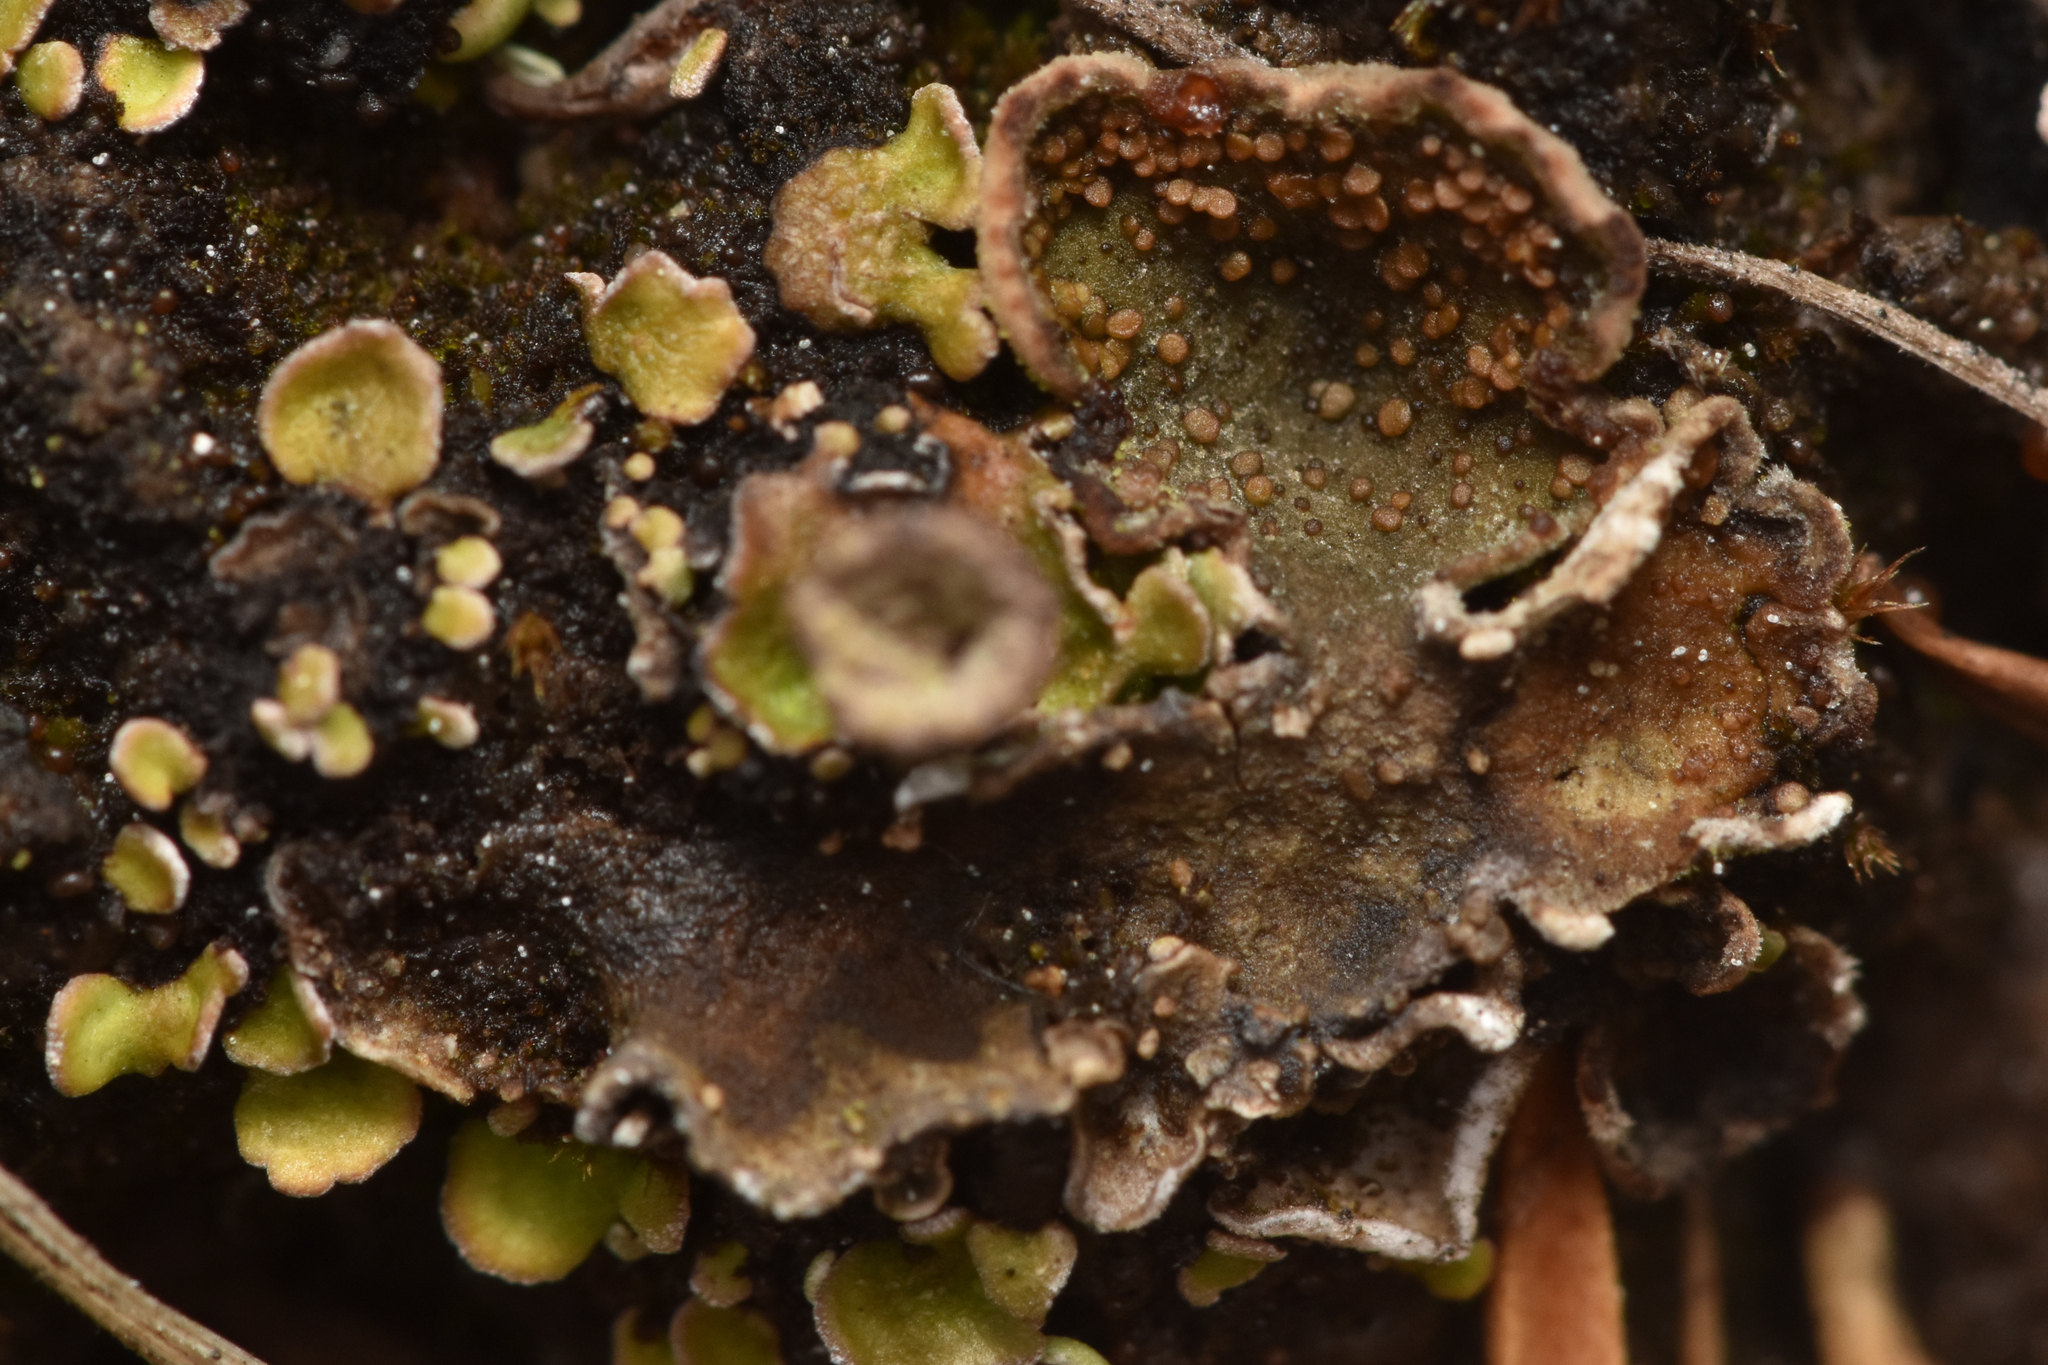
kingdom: Fungi
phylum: Ascomycota
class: Lecanoromycetes
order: Peltigerales
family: Peltigeraceae
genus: Peltigera
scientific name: Peltigera didactyla
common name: Alternating dog lichen
